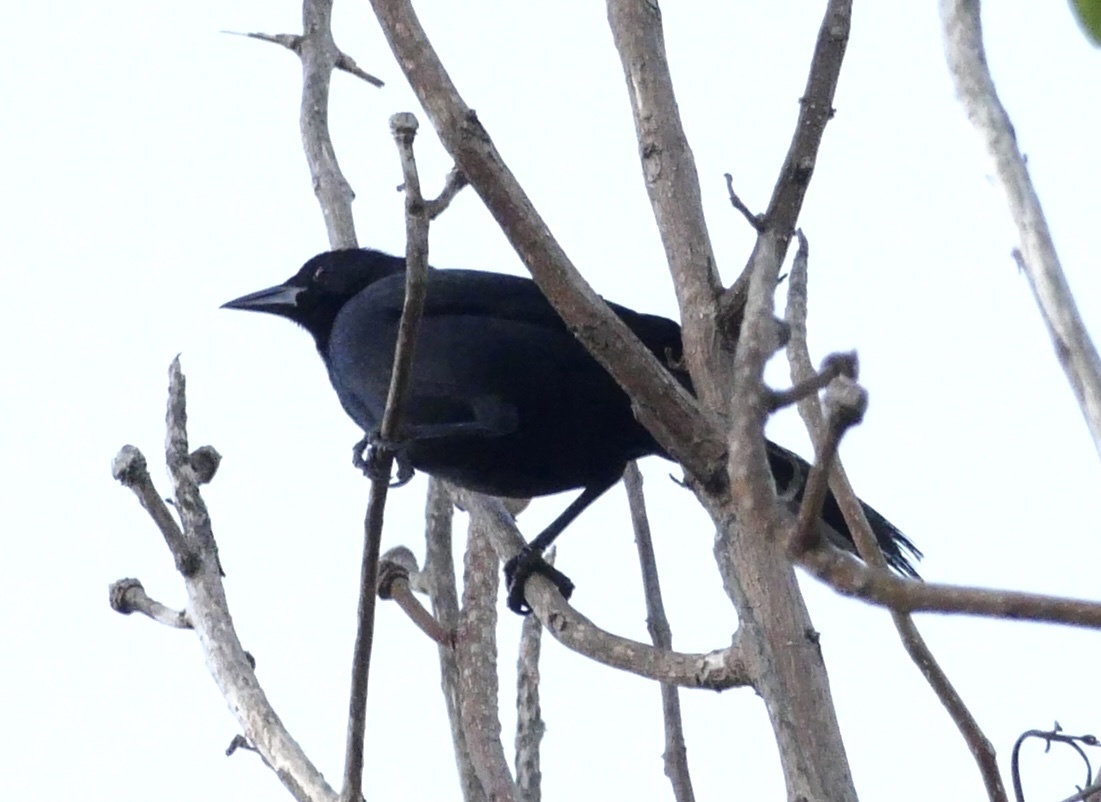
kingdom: Animalia
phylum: Chordata
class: Aves
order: Passeriformes
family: Icteridae
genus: Dives
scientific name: Dives dives
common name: Melodious blackbird
